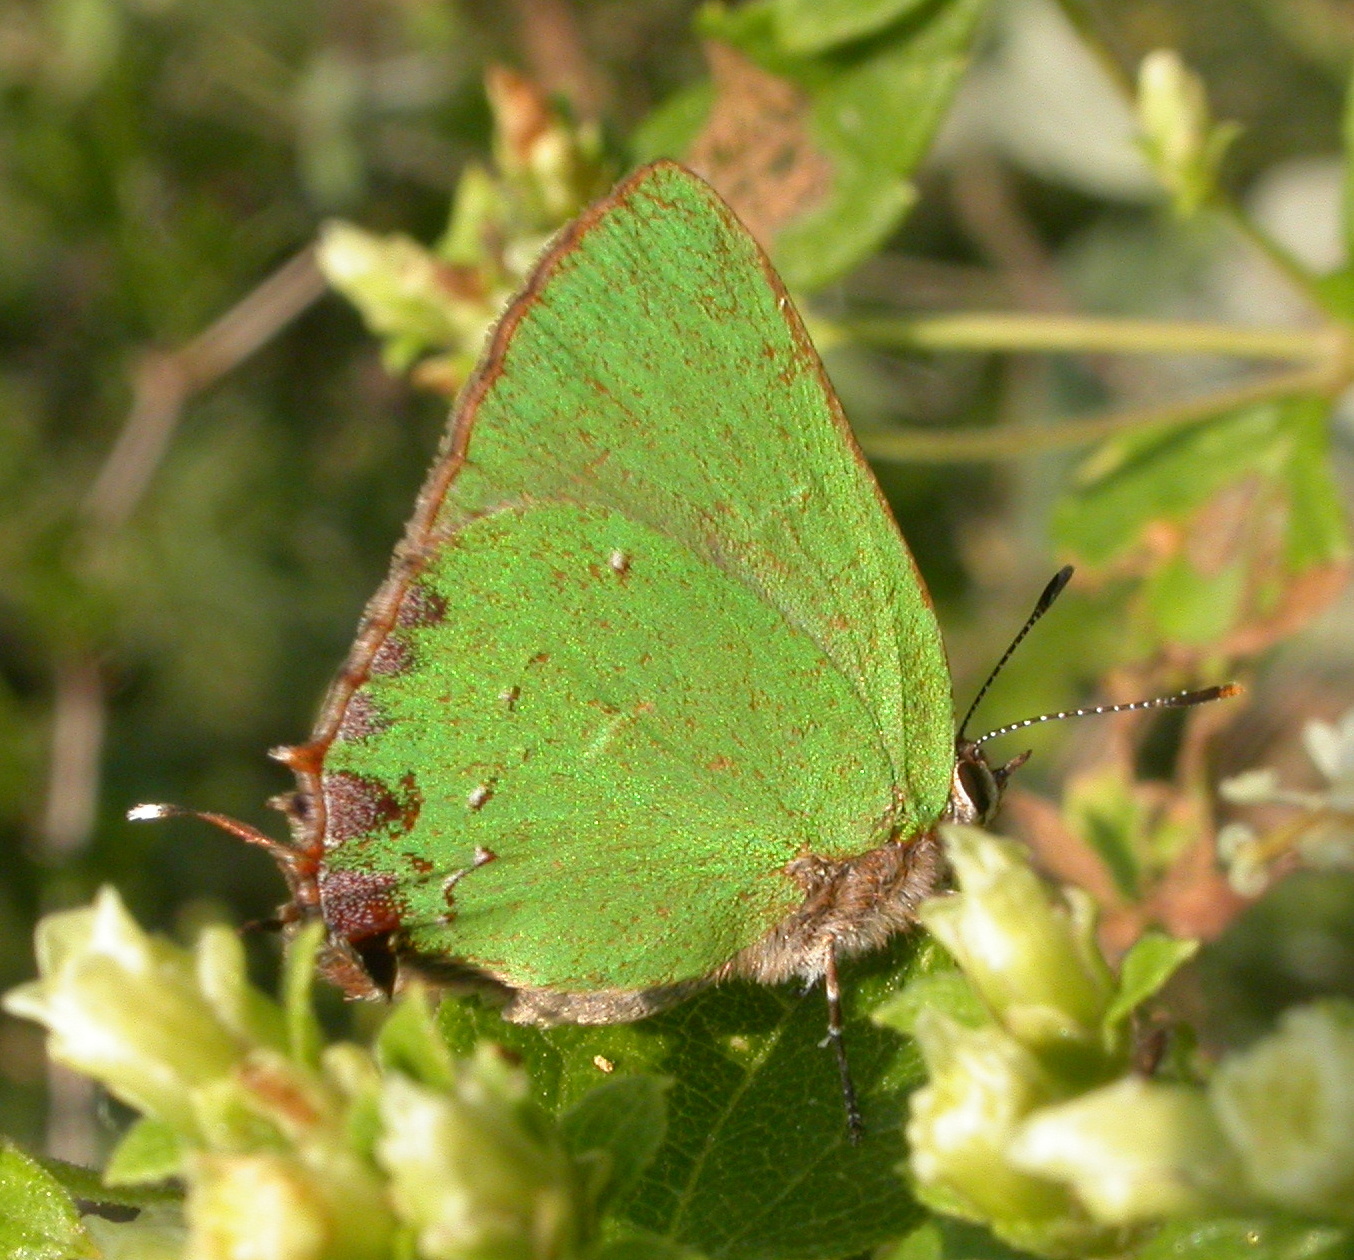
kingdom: Animalia
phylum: Arthropoda
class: Insecta
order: Lepidoptera
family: Lycaenidae
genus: Cyanophrys
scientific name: Cyanophrys longula
